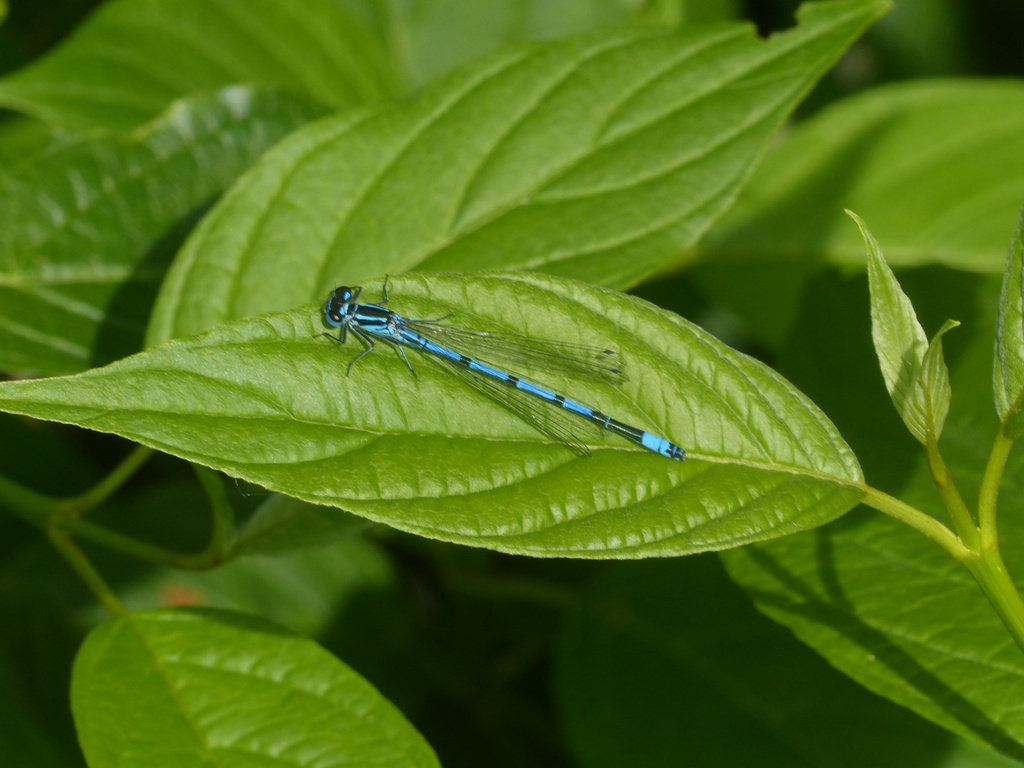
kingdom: Animalia
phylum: Arthropoda
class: Insecta
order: Odonata
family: Coenagrionidae
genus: Coenagrion
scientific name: Coenagrion puella
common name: Azure damselfly
